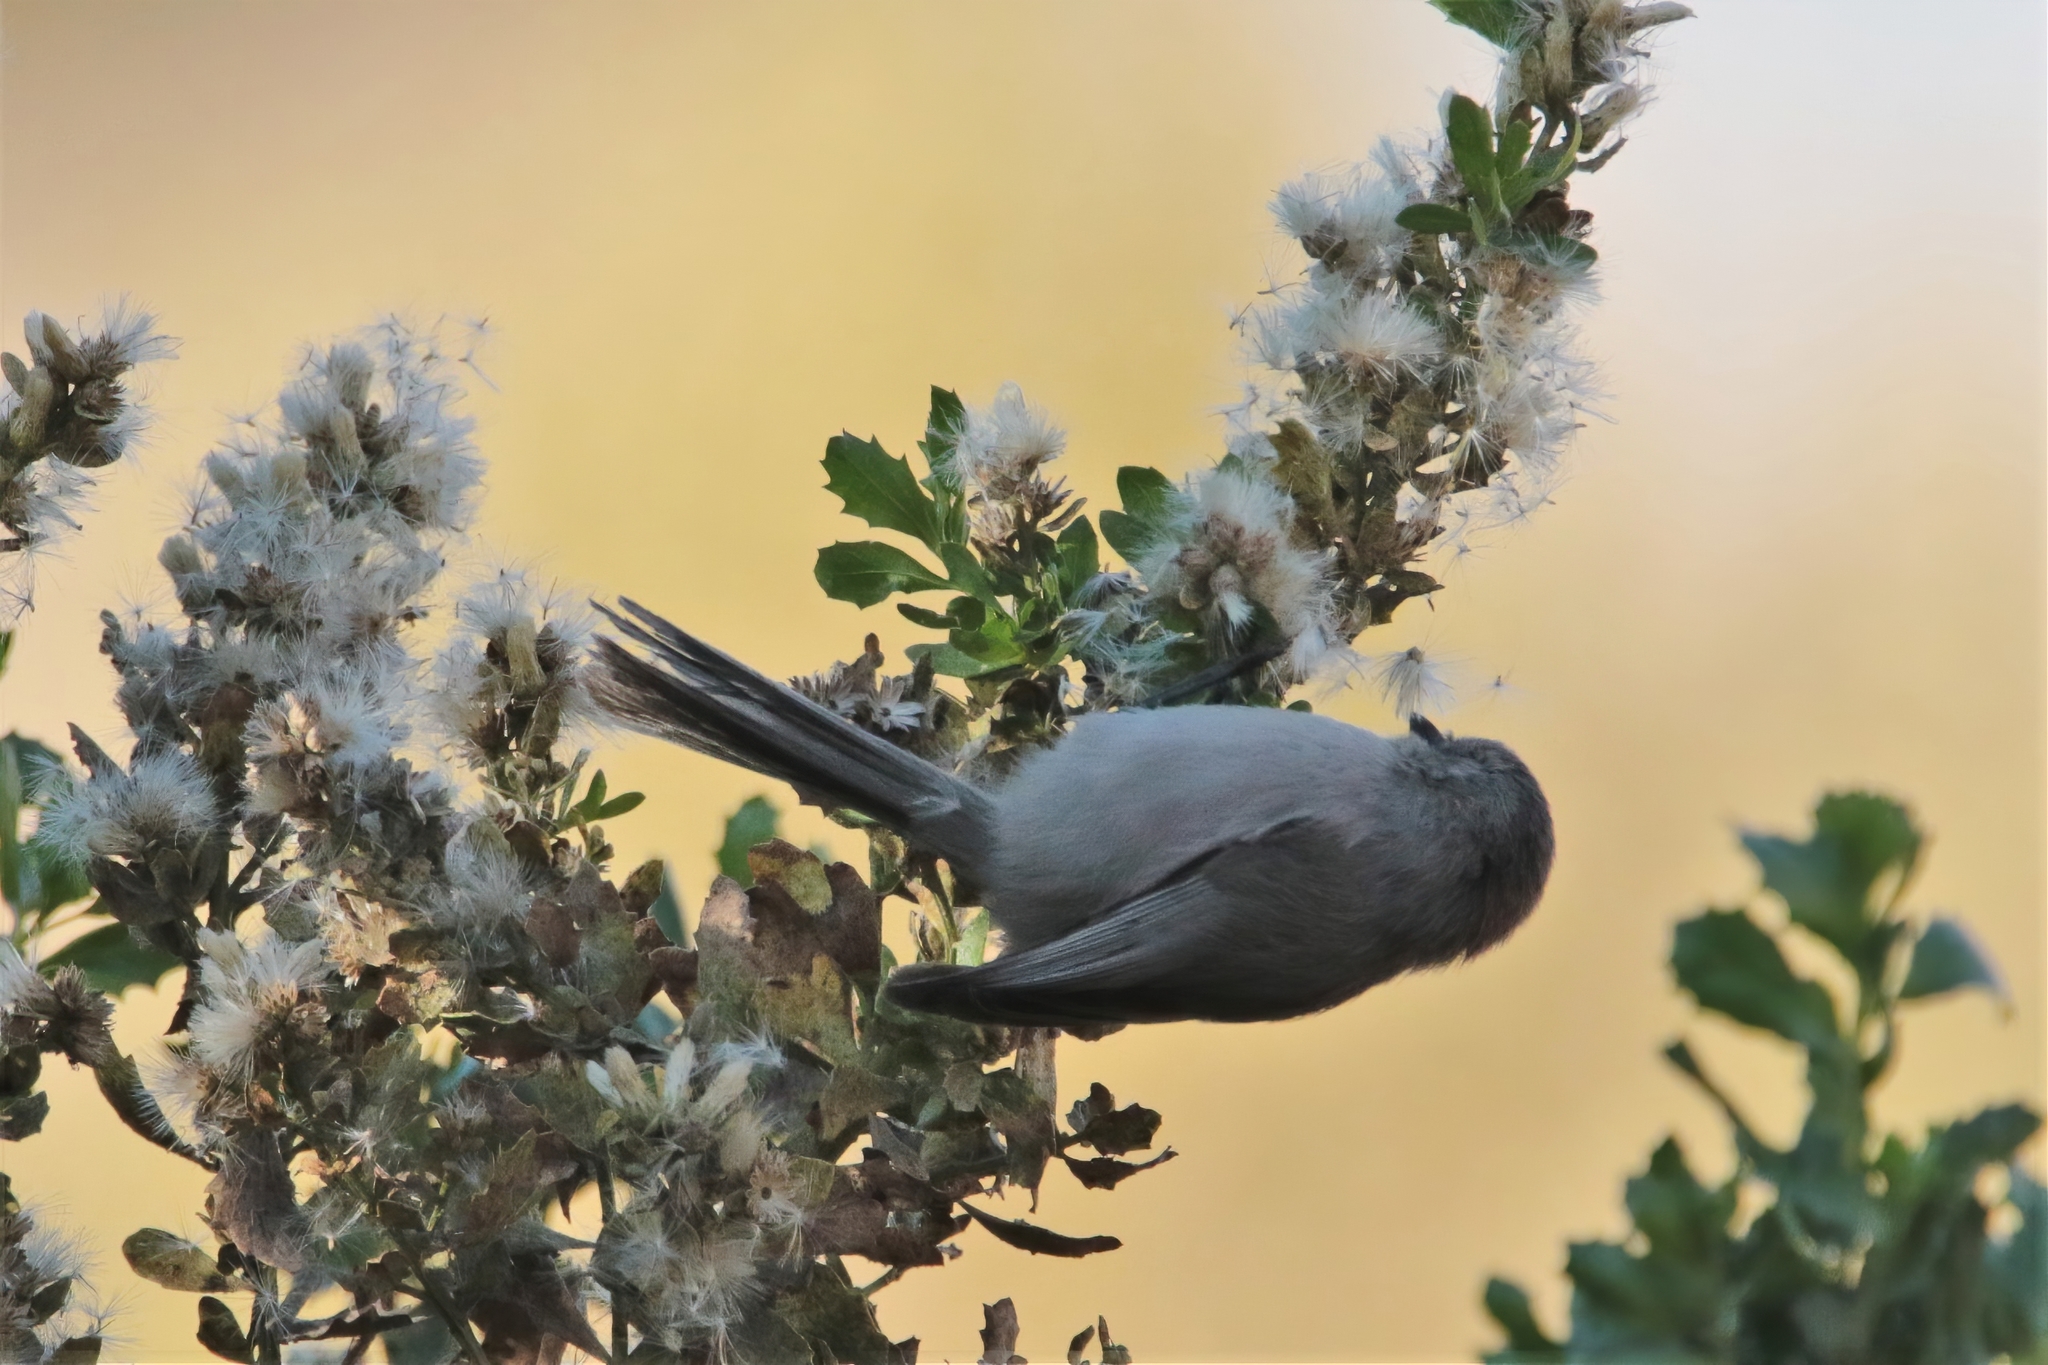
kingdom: Animalia
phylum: Chordata
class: Aves
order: Passeriformes
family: Aegithalidae
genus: Psaltriparus
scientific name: Psaltriparus minimus
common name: American bushtit
